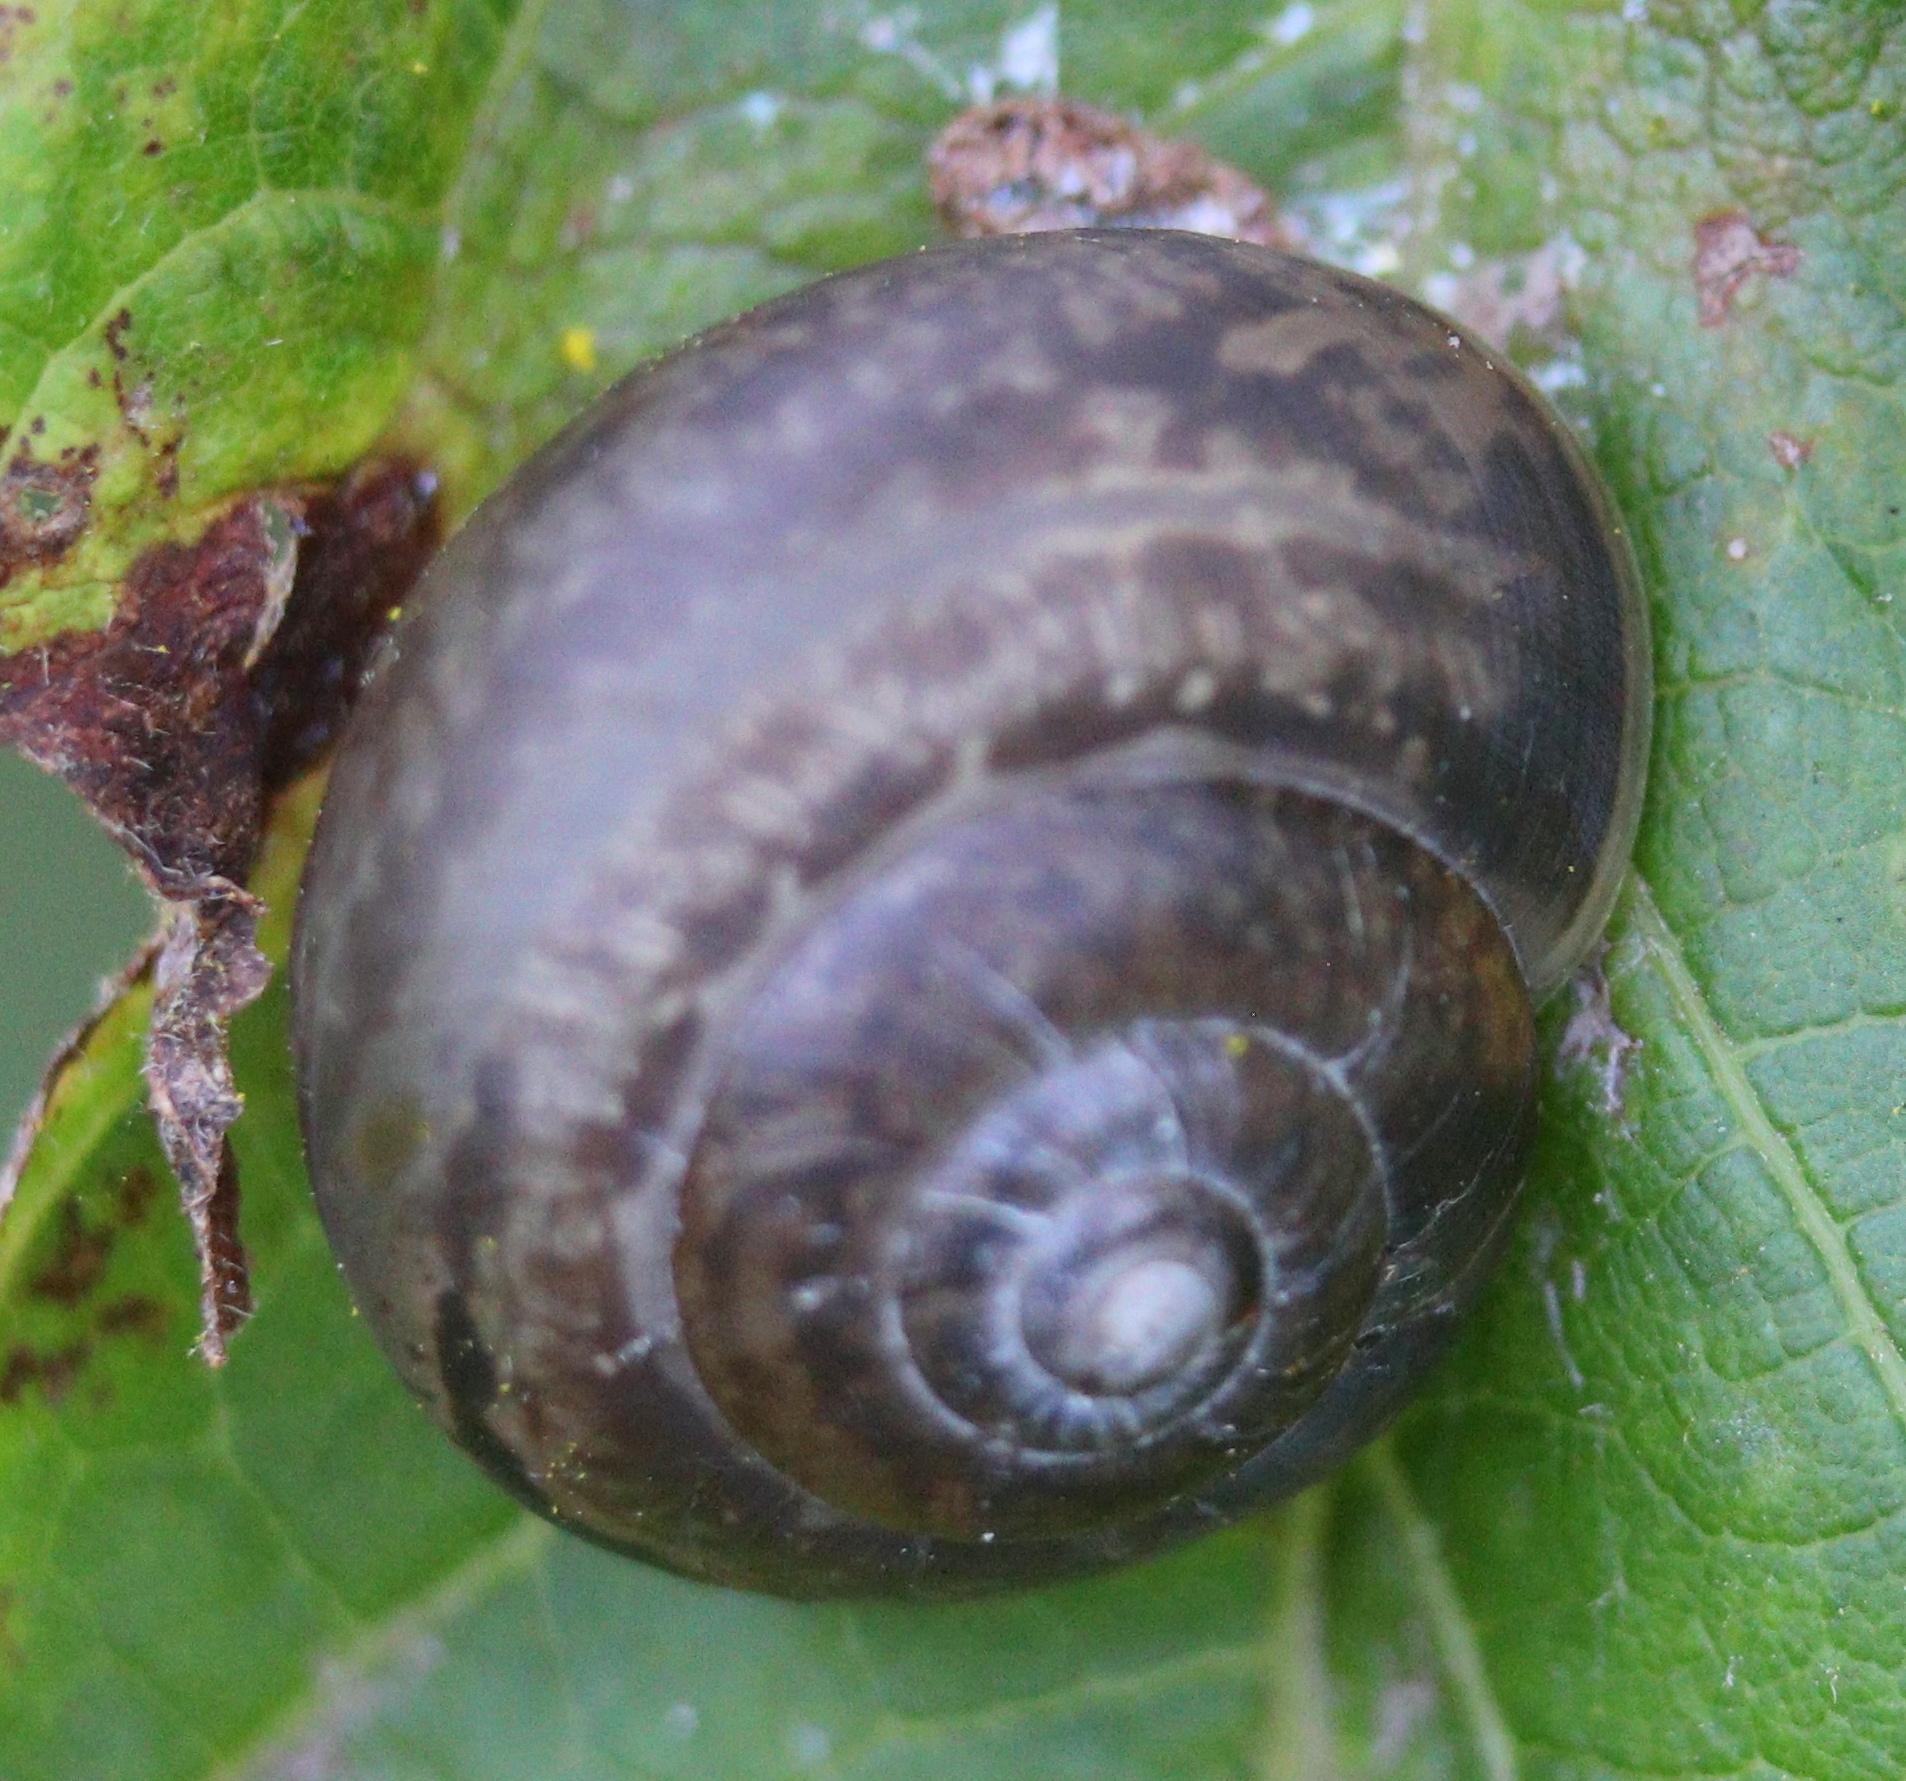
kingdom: Animalia
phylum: Mollusca
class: Gastropoda
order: Stylommatophora
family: Camaenidae
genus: Fruticicola
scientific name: Fruticicola fruticum
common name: Bush snail
